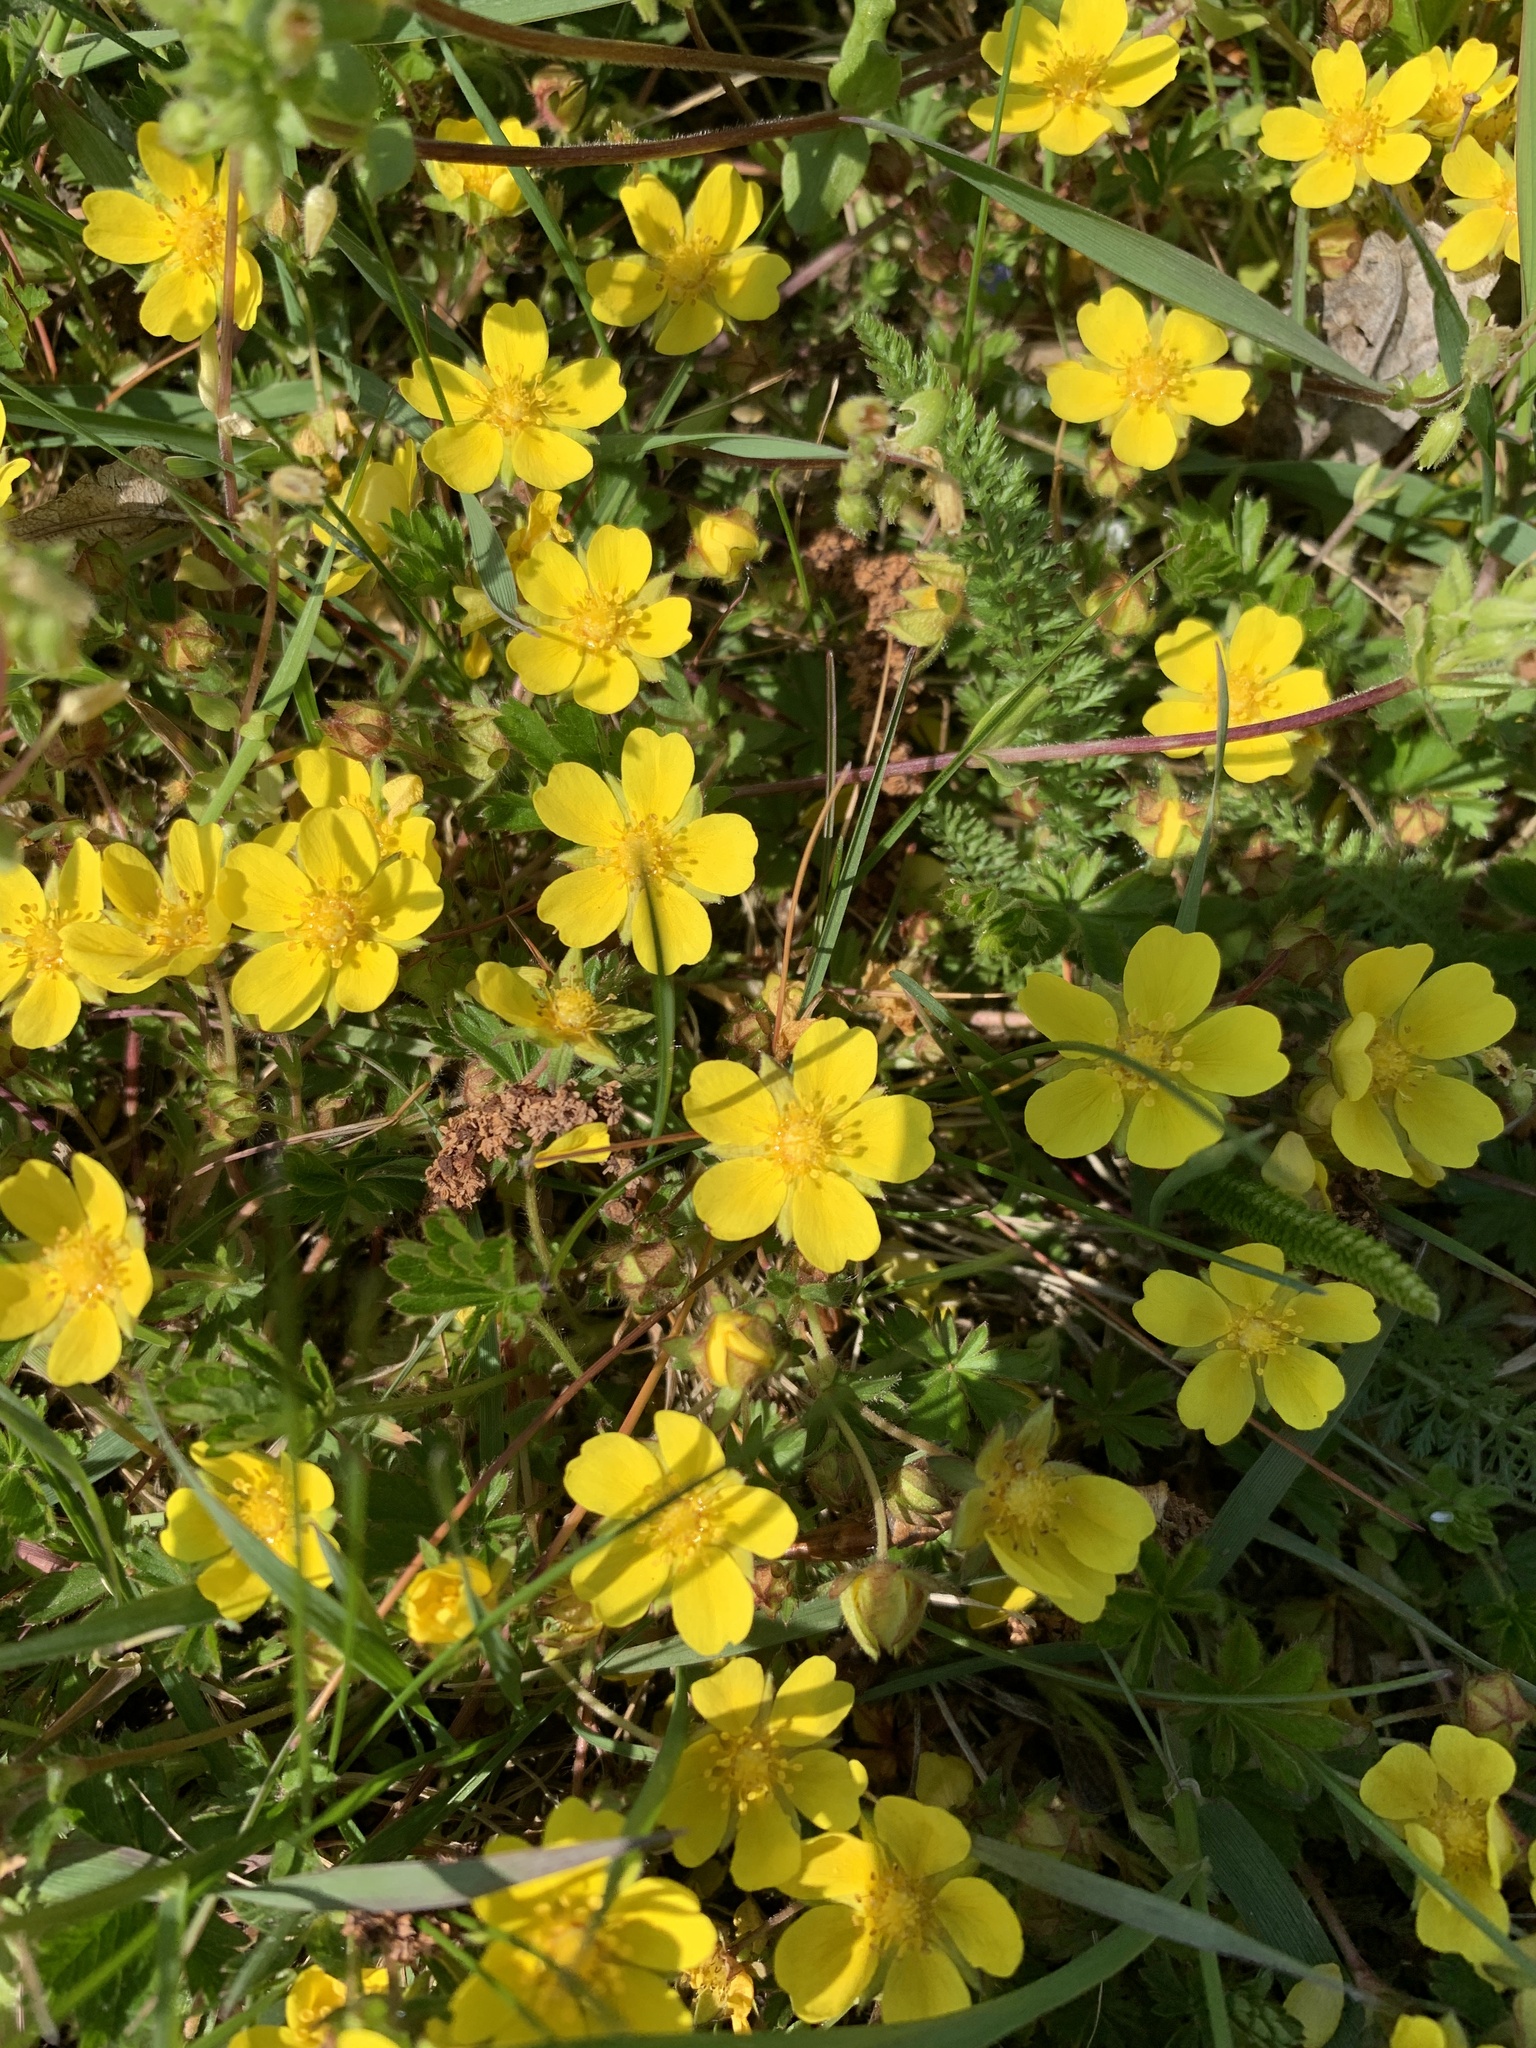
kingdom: Plantae
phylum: Tracheophyta
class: Magnoliopsida
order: Rosales
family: Rosaceae
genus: Potentilla
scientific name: Potentilla verna
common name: Spring cinquefoil
